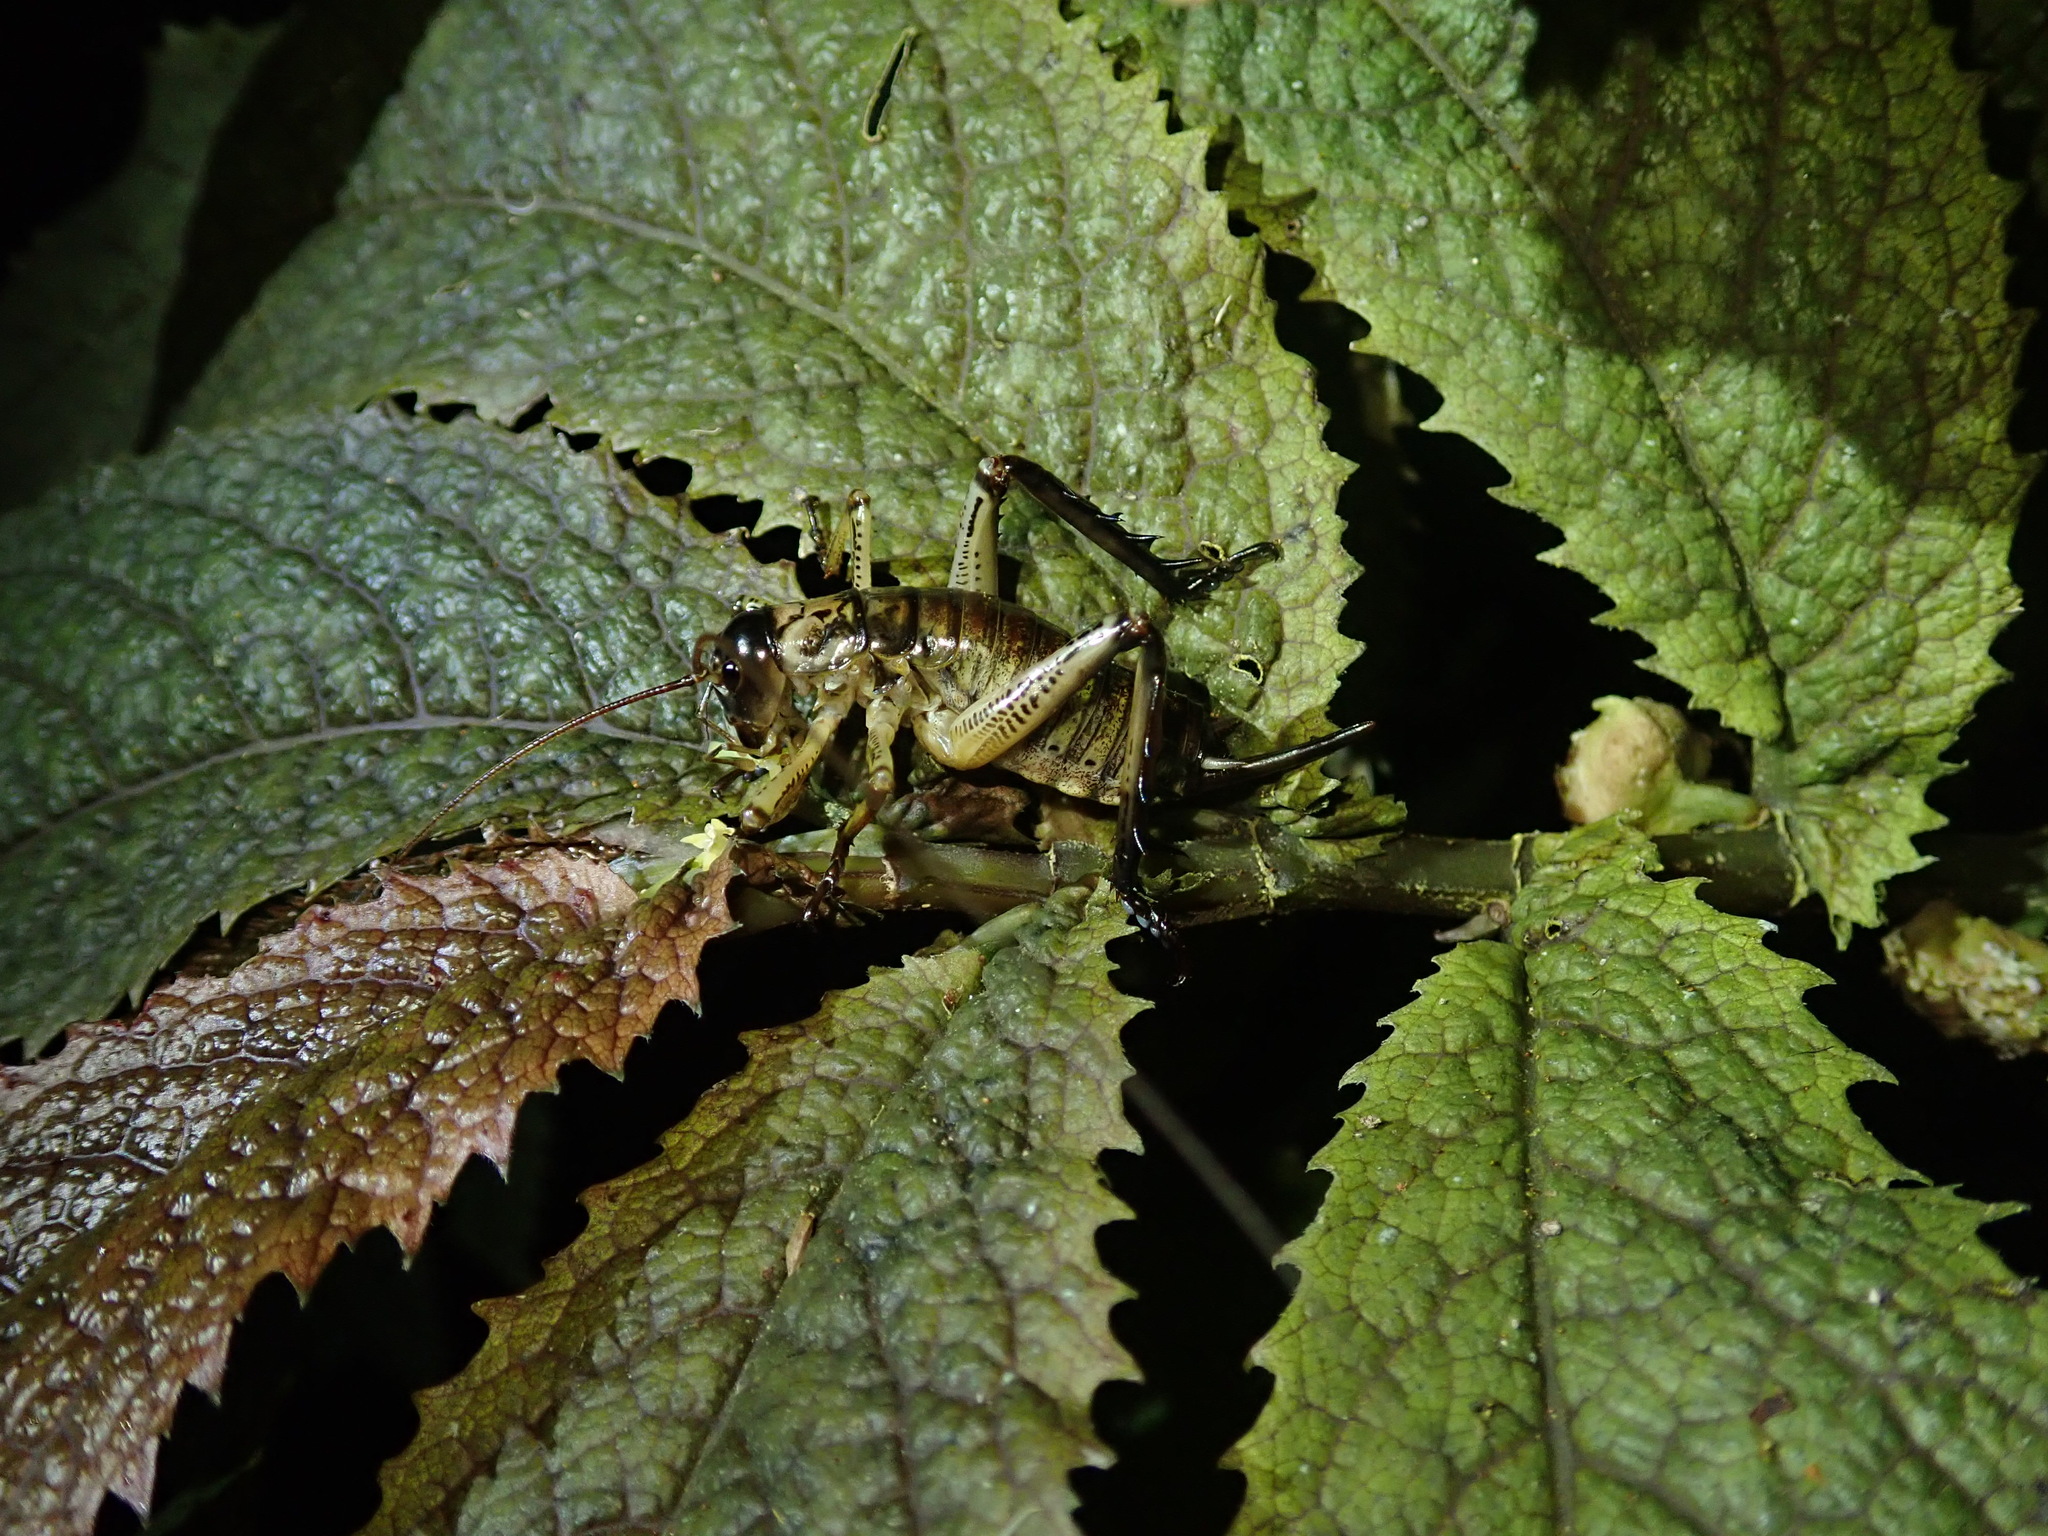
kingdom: Animalia
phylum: Arthropoda
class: Insecta
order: Orthoptera
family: Anostostomatidae
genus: Hemideina
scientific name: Hemideina thoracica
